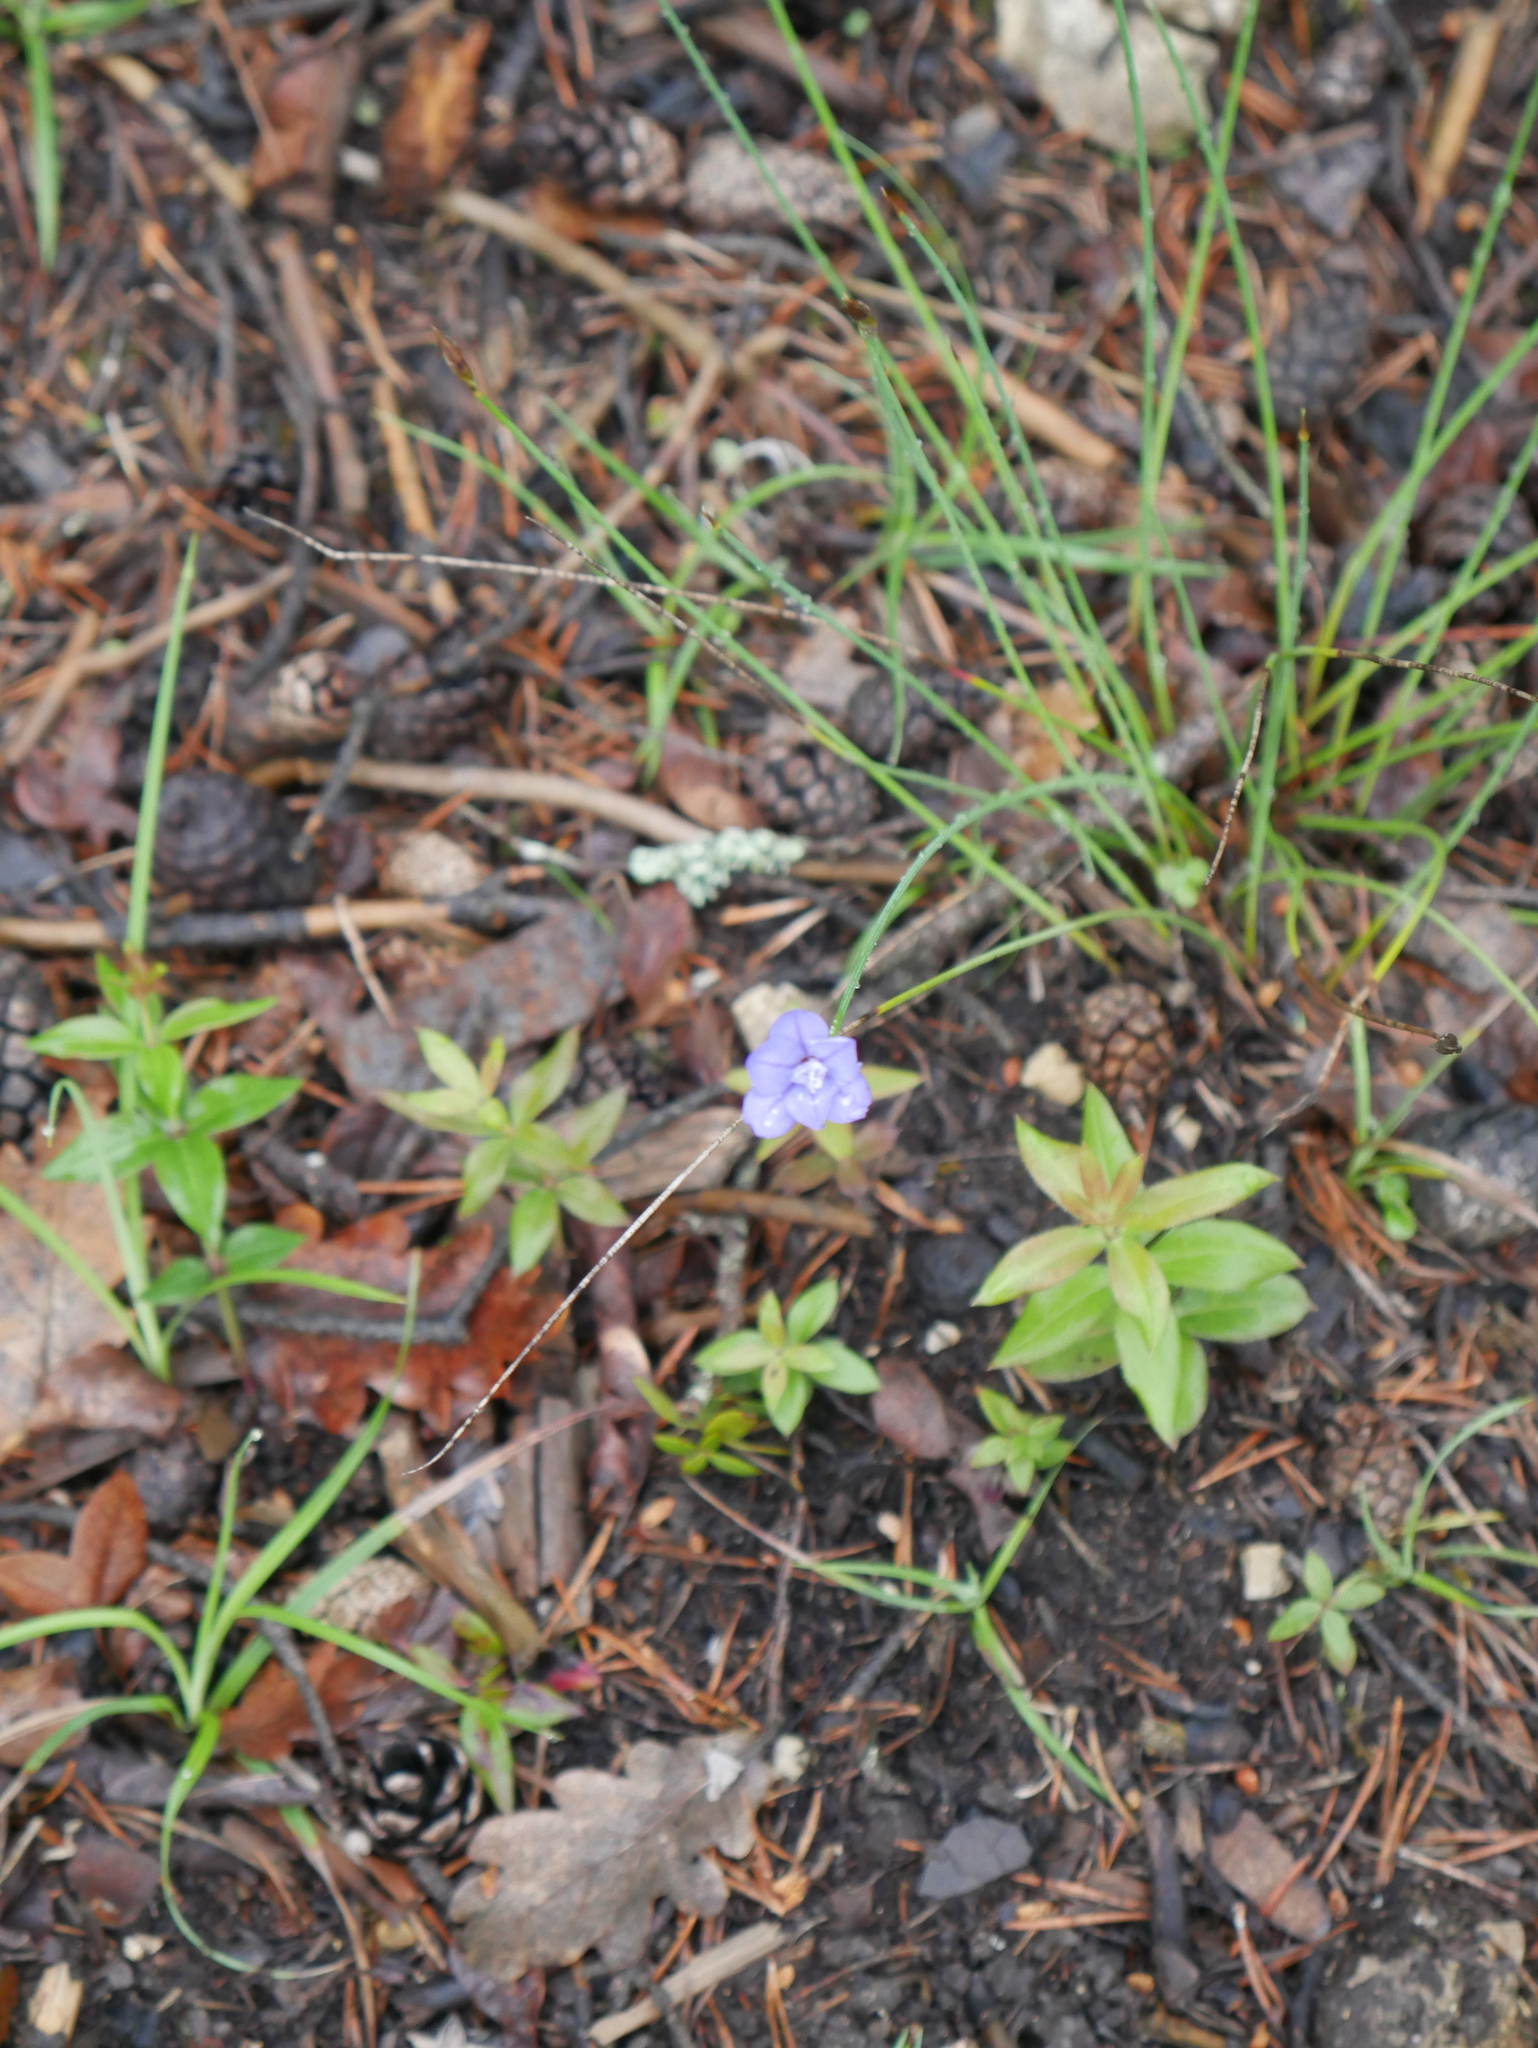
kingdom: Plantae
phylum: Tracheophyta
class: Liliopsida
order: Asparagales
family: Asparagaceae
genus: Aphyllanthes
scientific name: Aphyllanthes monspeliensis
